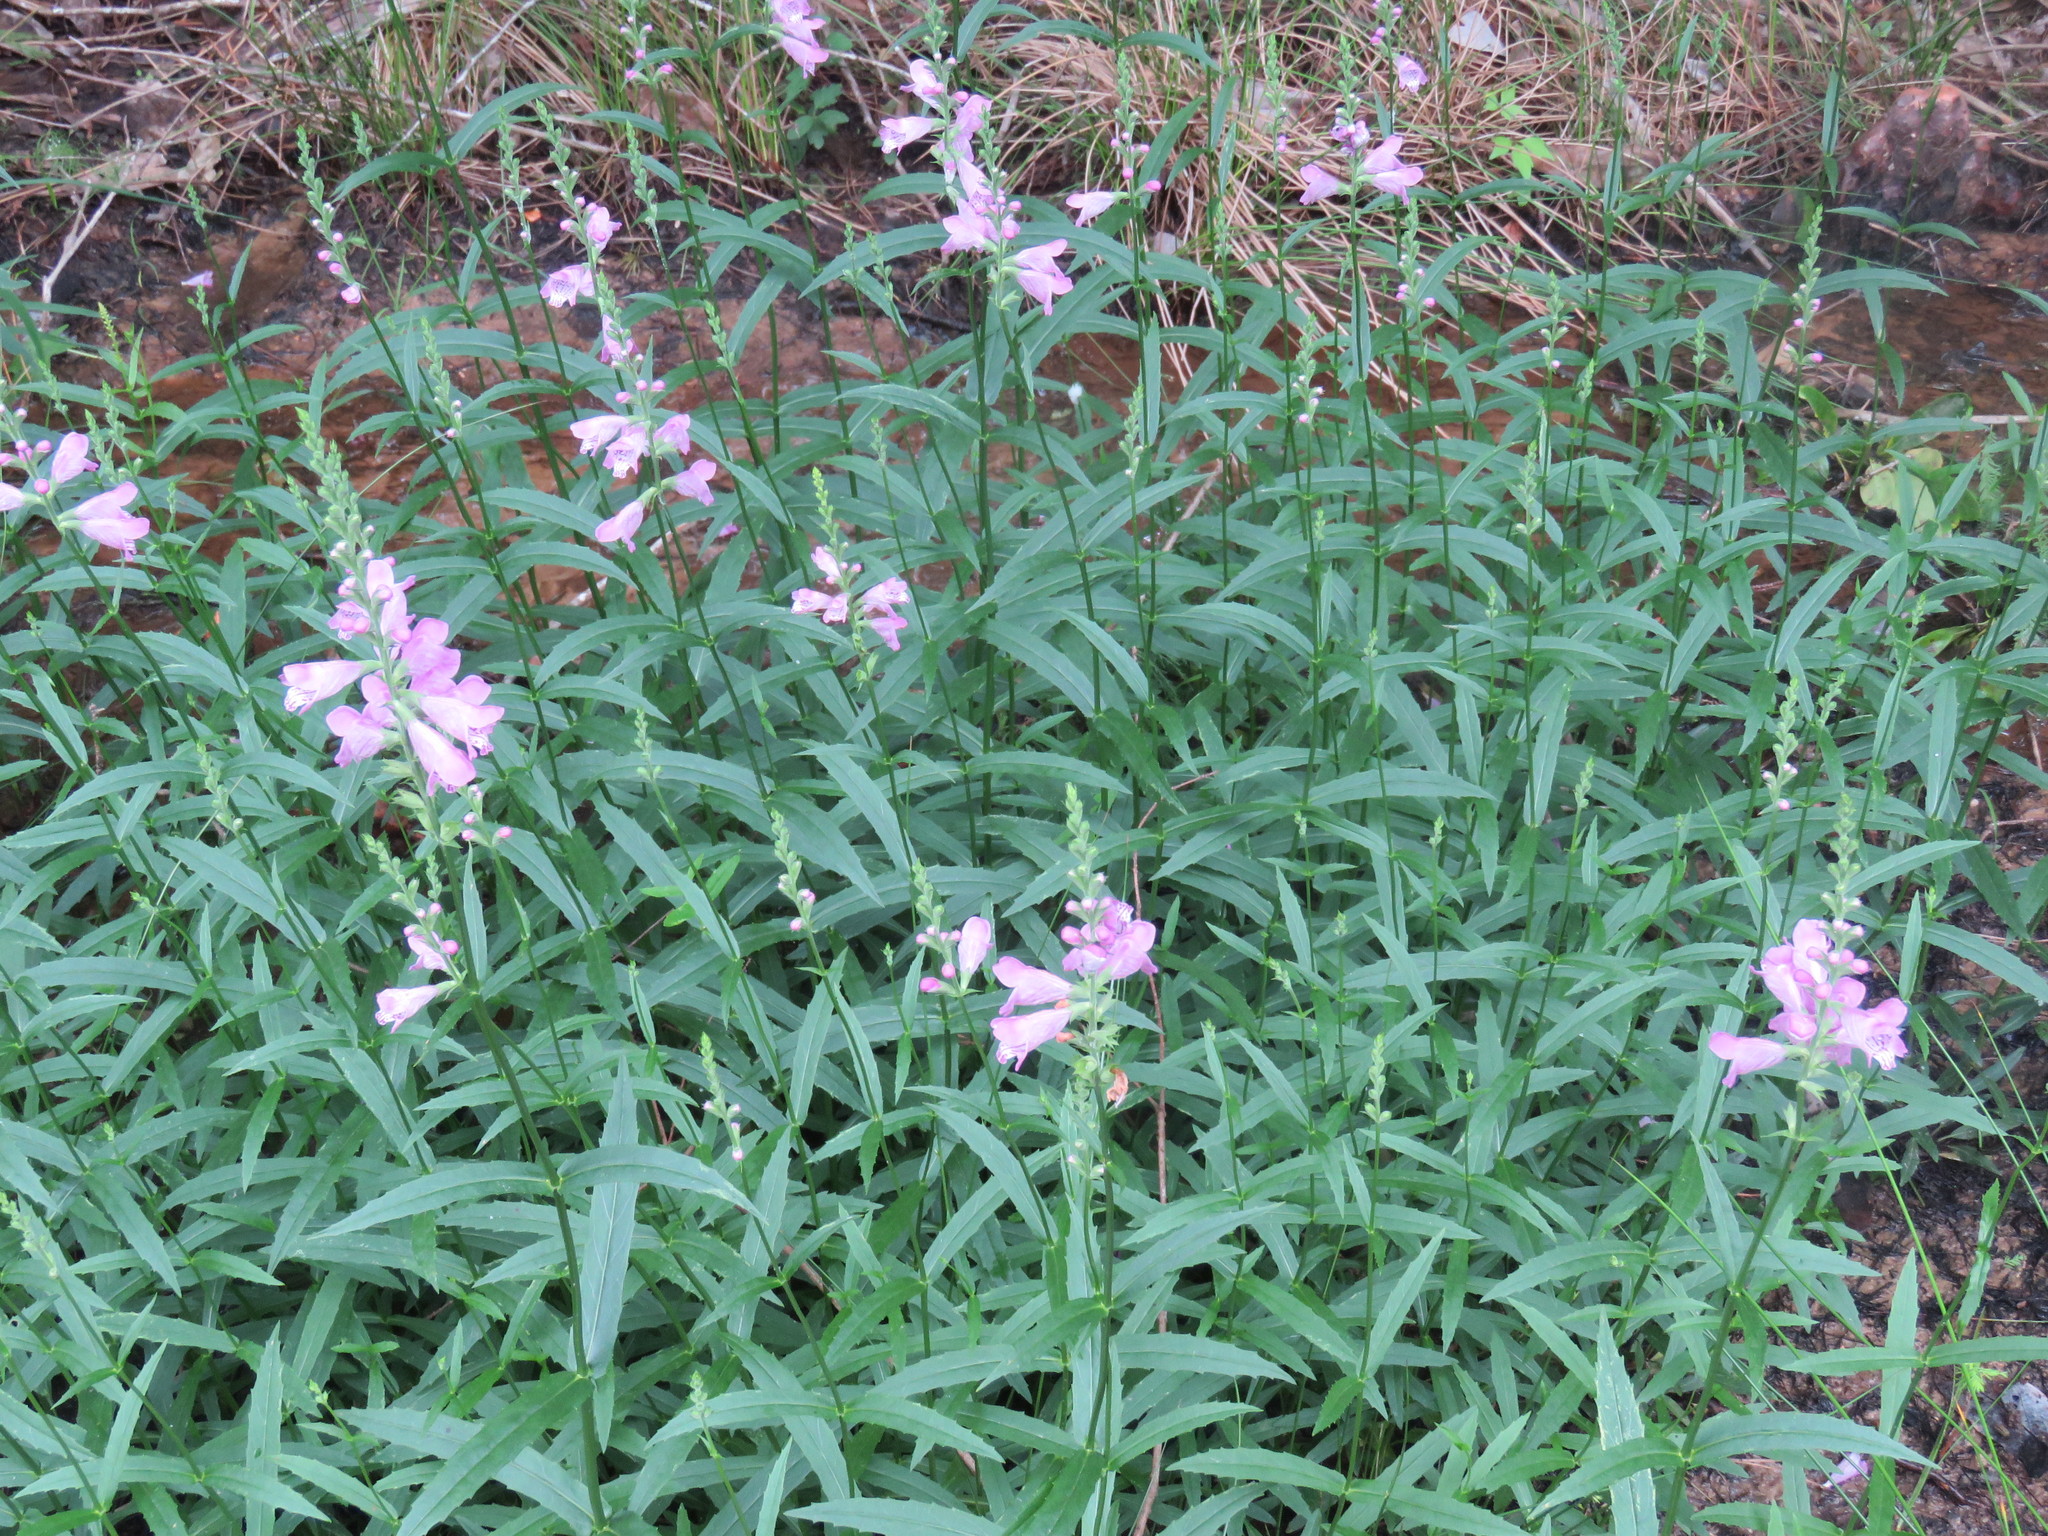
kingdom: Plantae
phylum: Tracheophyta
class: Magnoliopsida
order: Lamiales
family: Lamiaceae
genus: Physostegia
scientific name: Physostegia virginiana
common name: Obedient-plant
